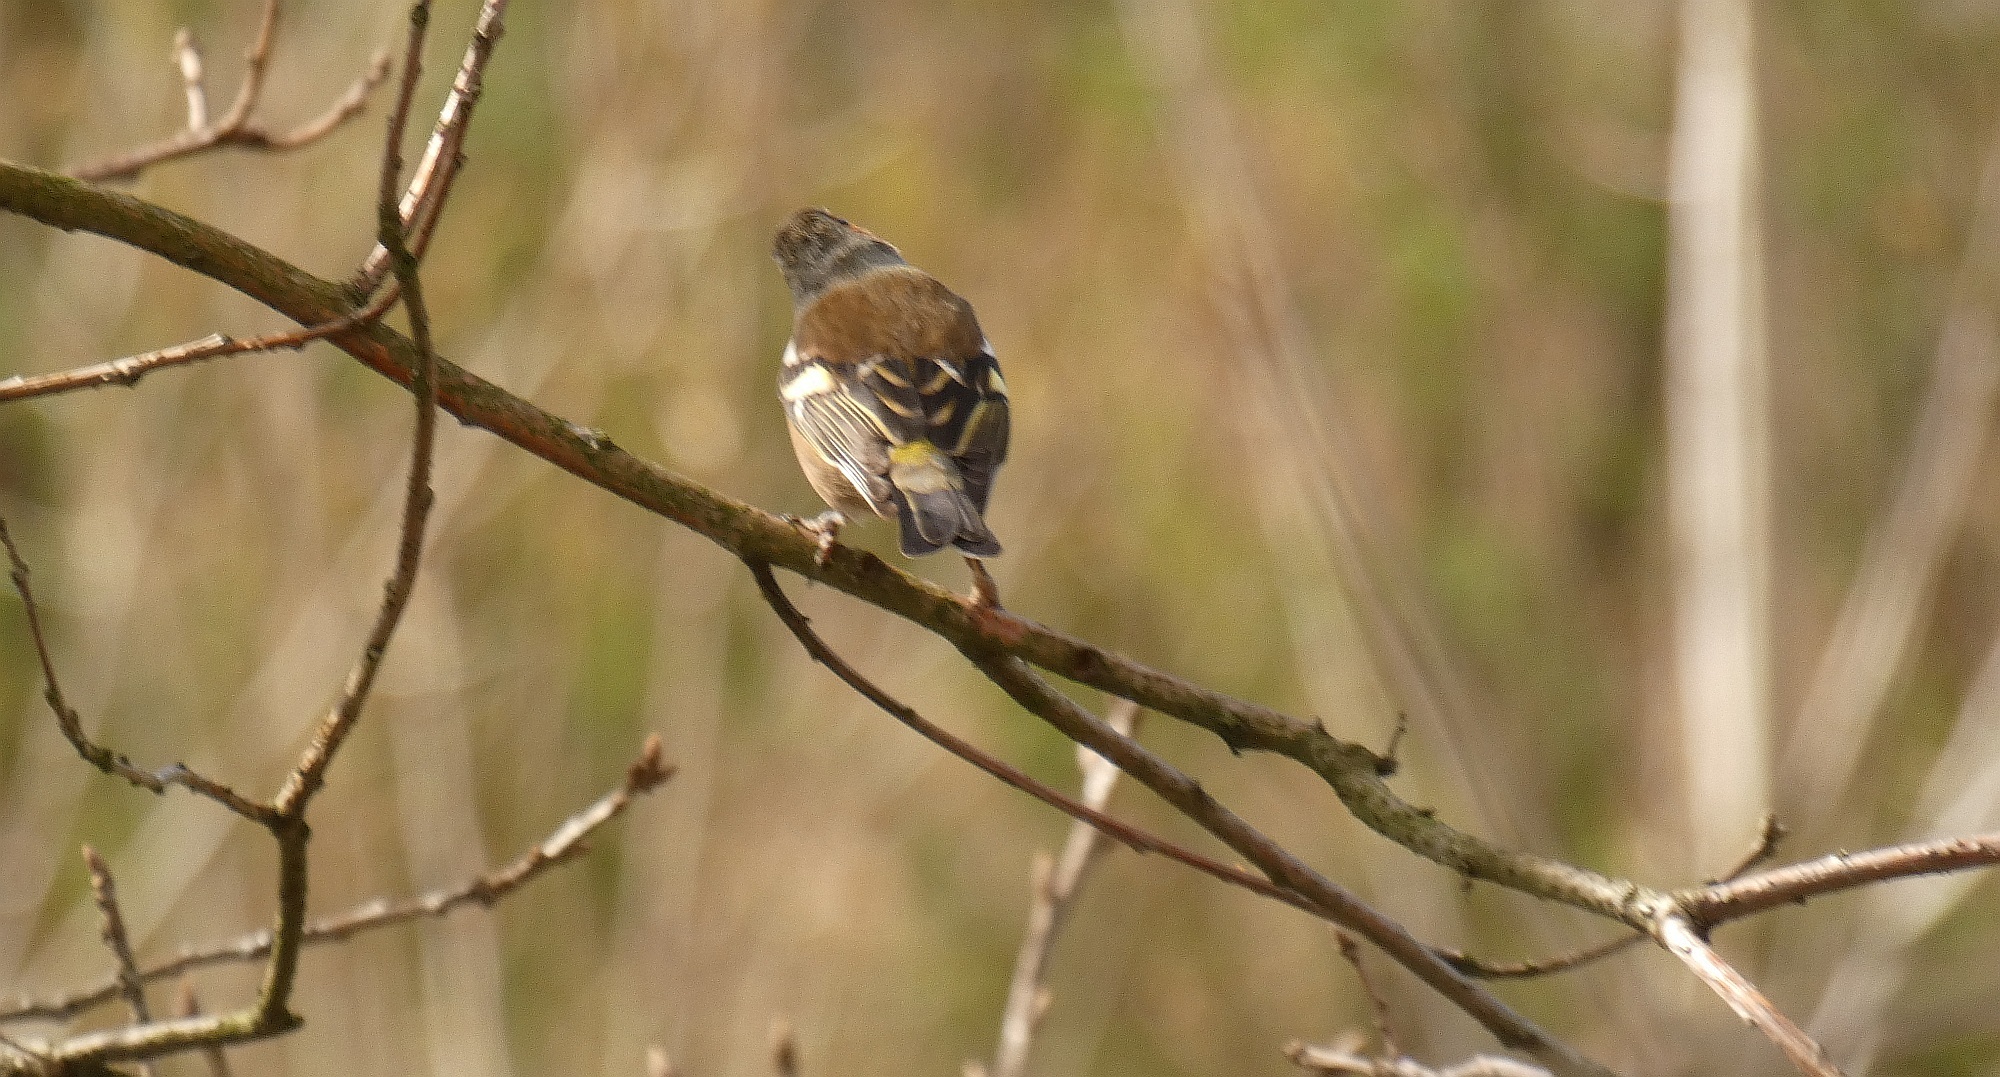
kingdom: Animalia
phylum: Chordata
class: Aves
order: Passeriformes
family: Fringillidae
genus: Fringilla
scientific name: Fringilla coelebs
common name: Common chaffinch
